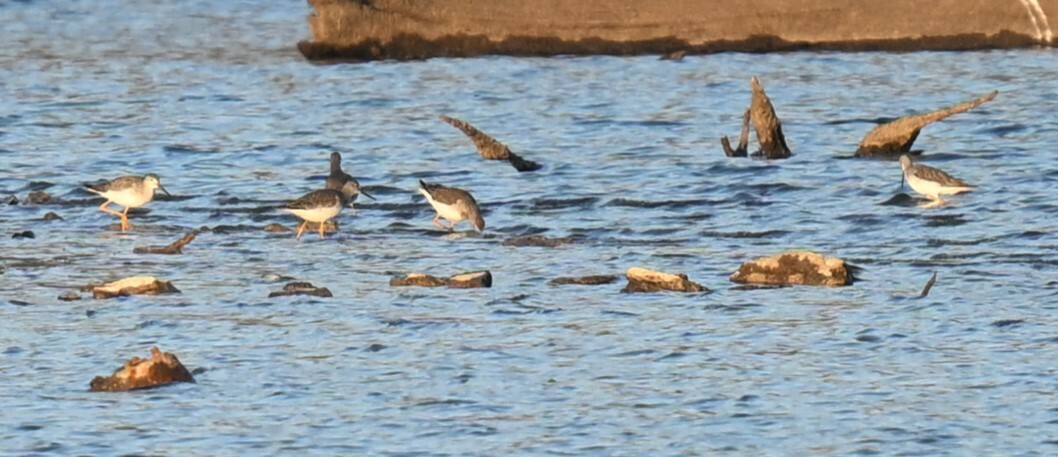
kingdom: Animalia
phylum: Chordata
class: Aves
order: Charadriiformes
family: Scolopacidae
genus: Tringa
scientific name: Tringa melanoleuca
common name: Greater yellowlegs
